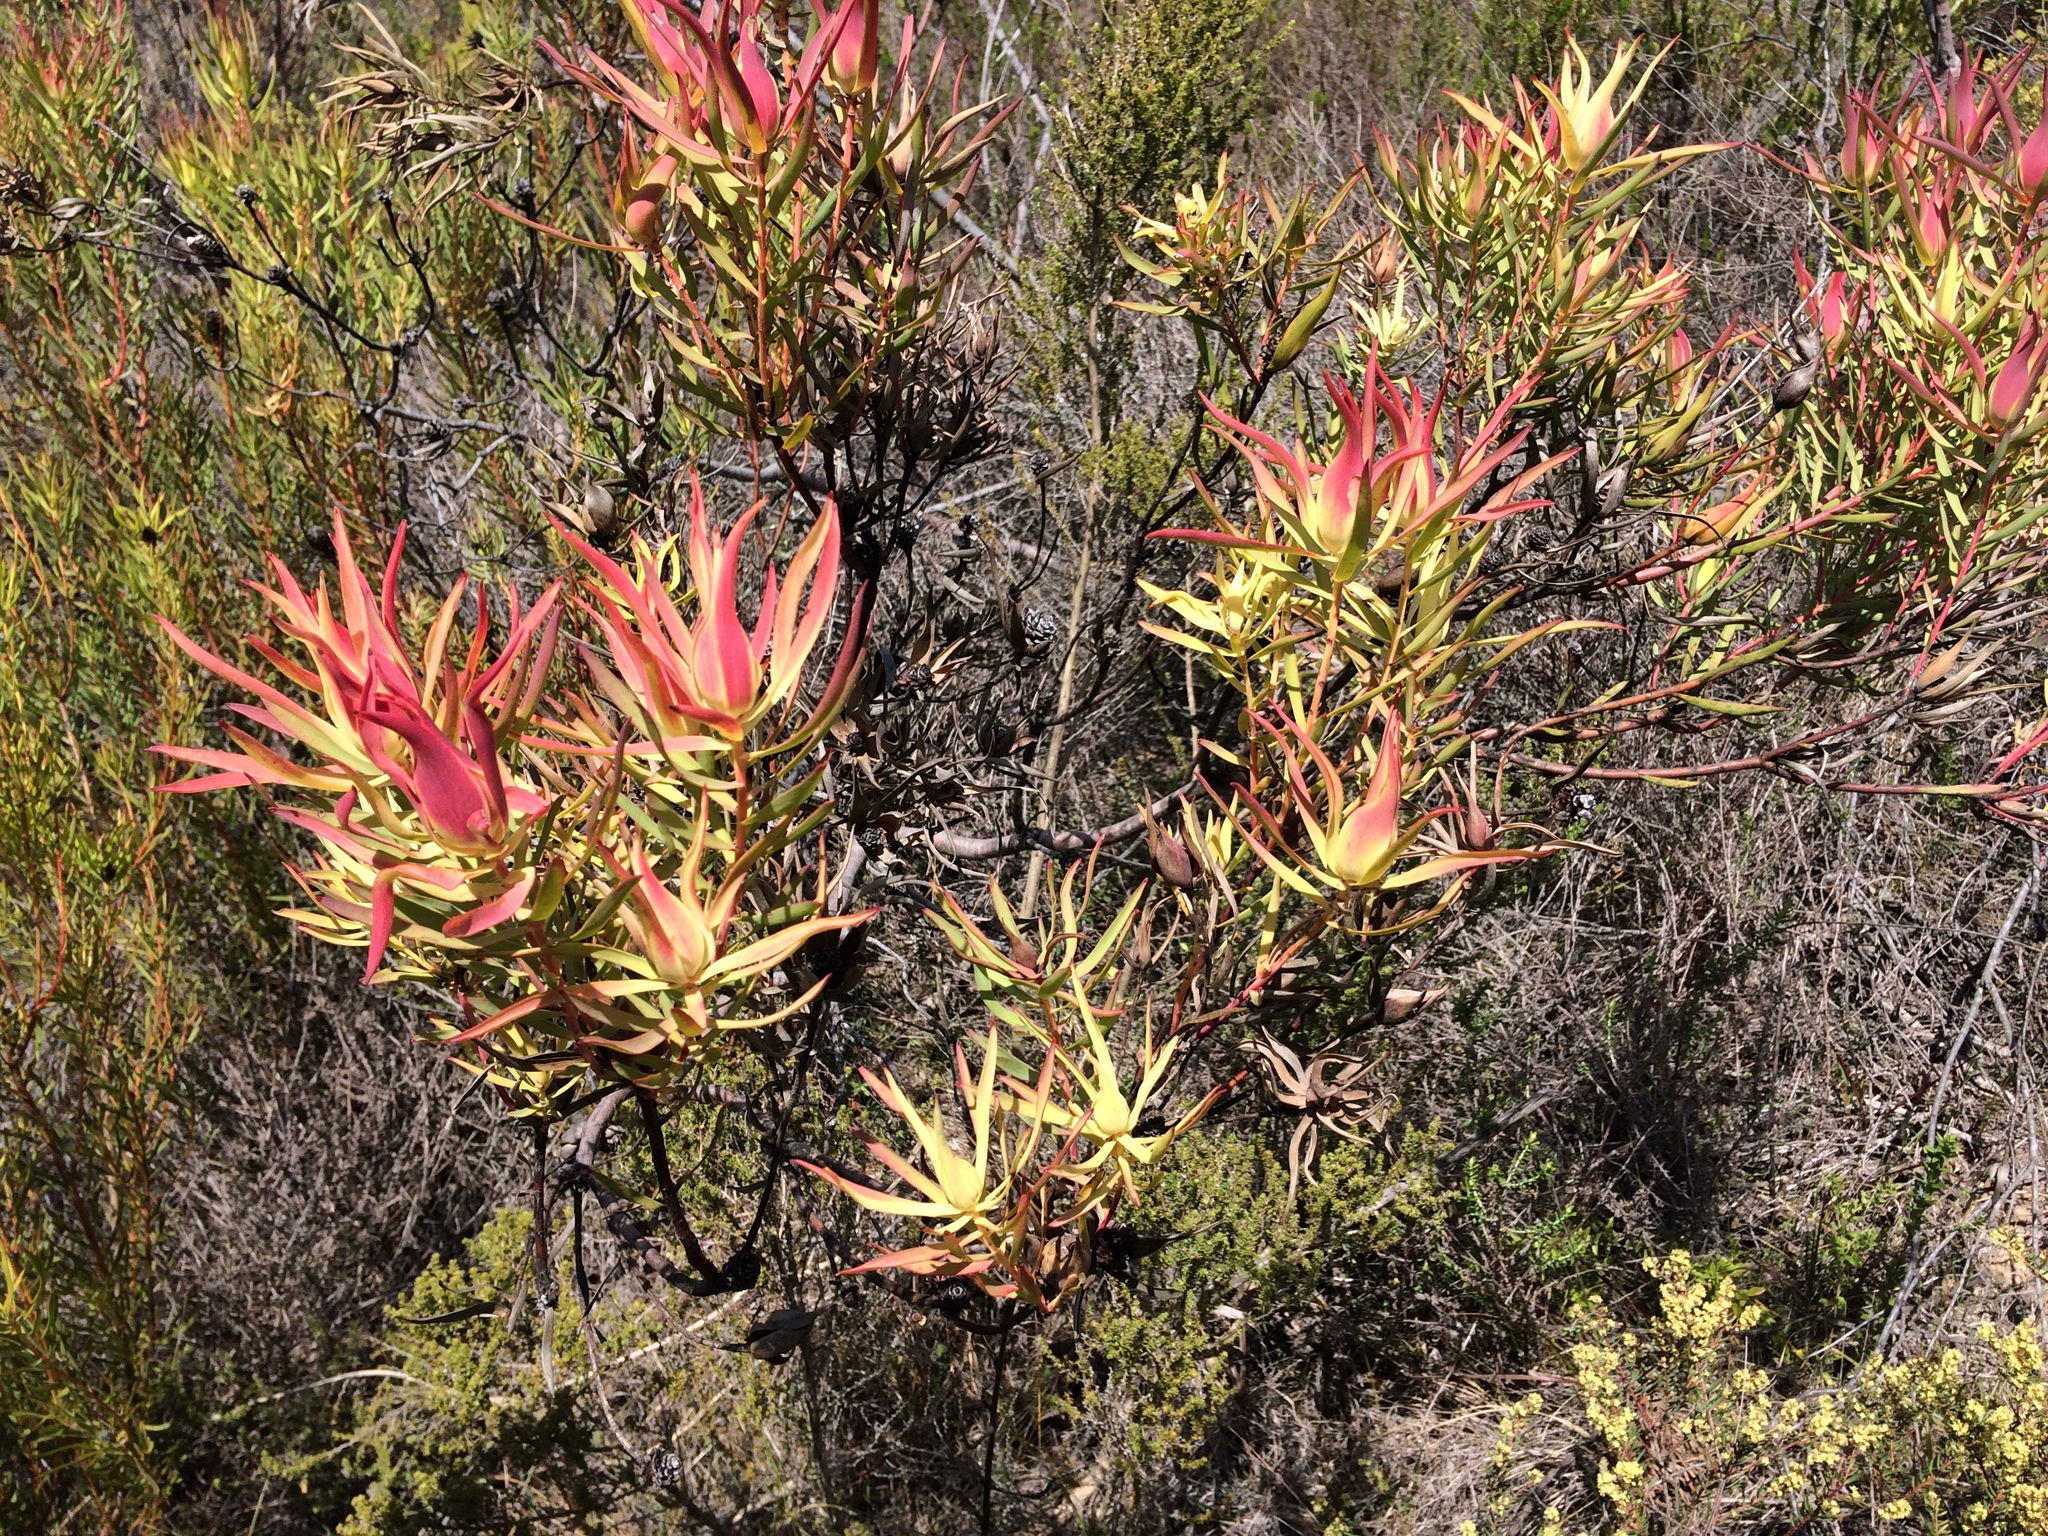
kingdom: Plantae
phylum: Tracheophyta
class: Magnoliopsida
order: Proteales
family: Proteaceae
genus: Leucadendron
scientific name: Leucadendron salignum
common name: Common sunshine conebush
